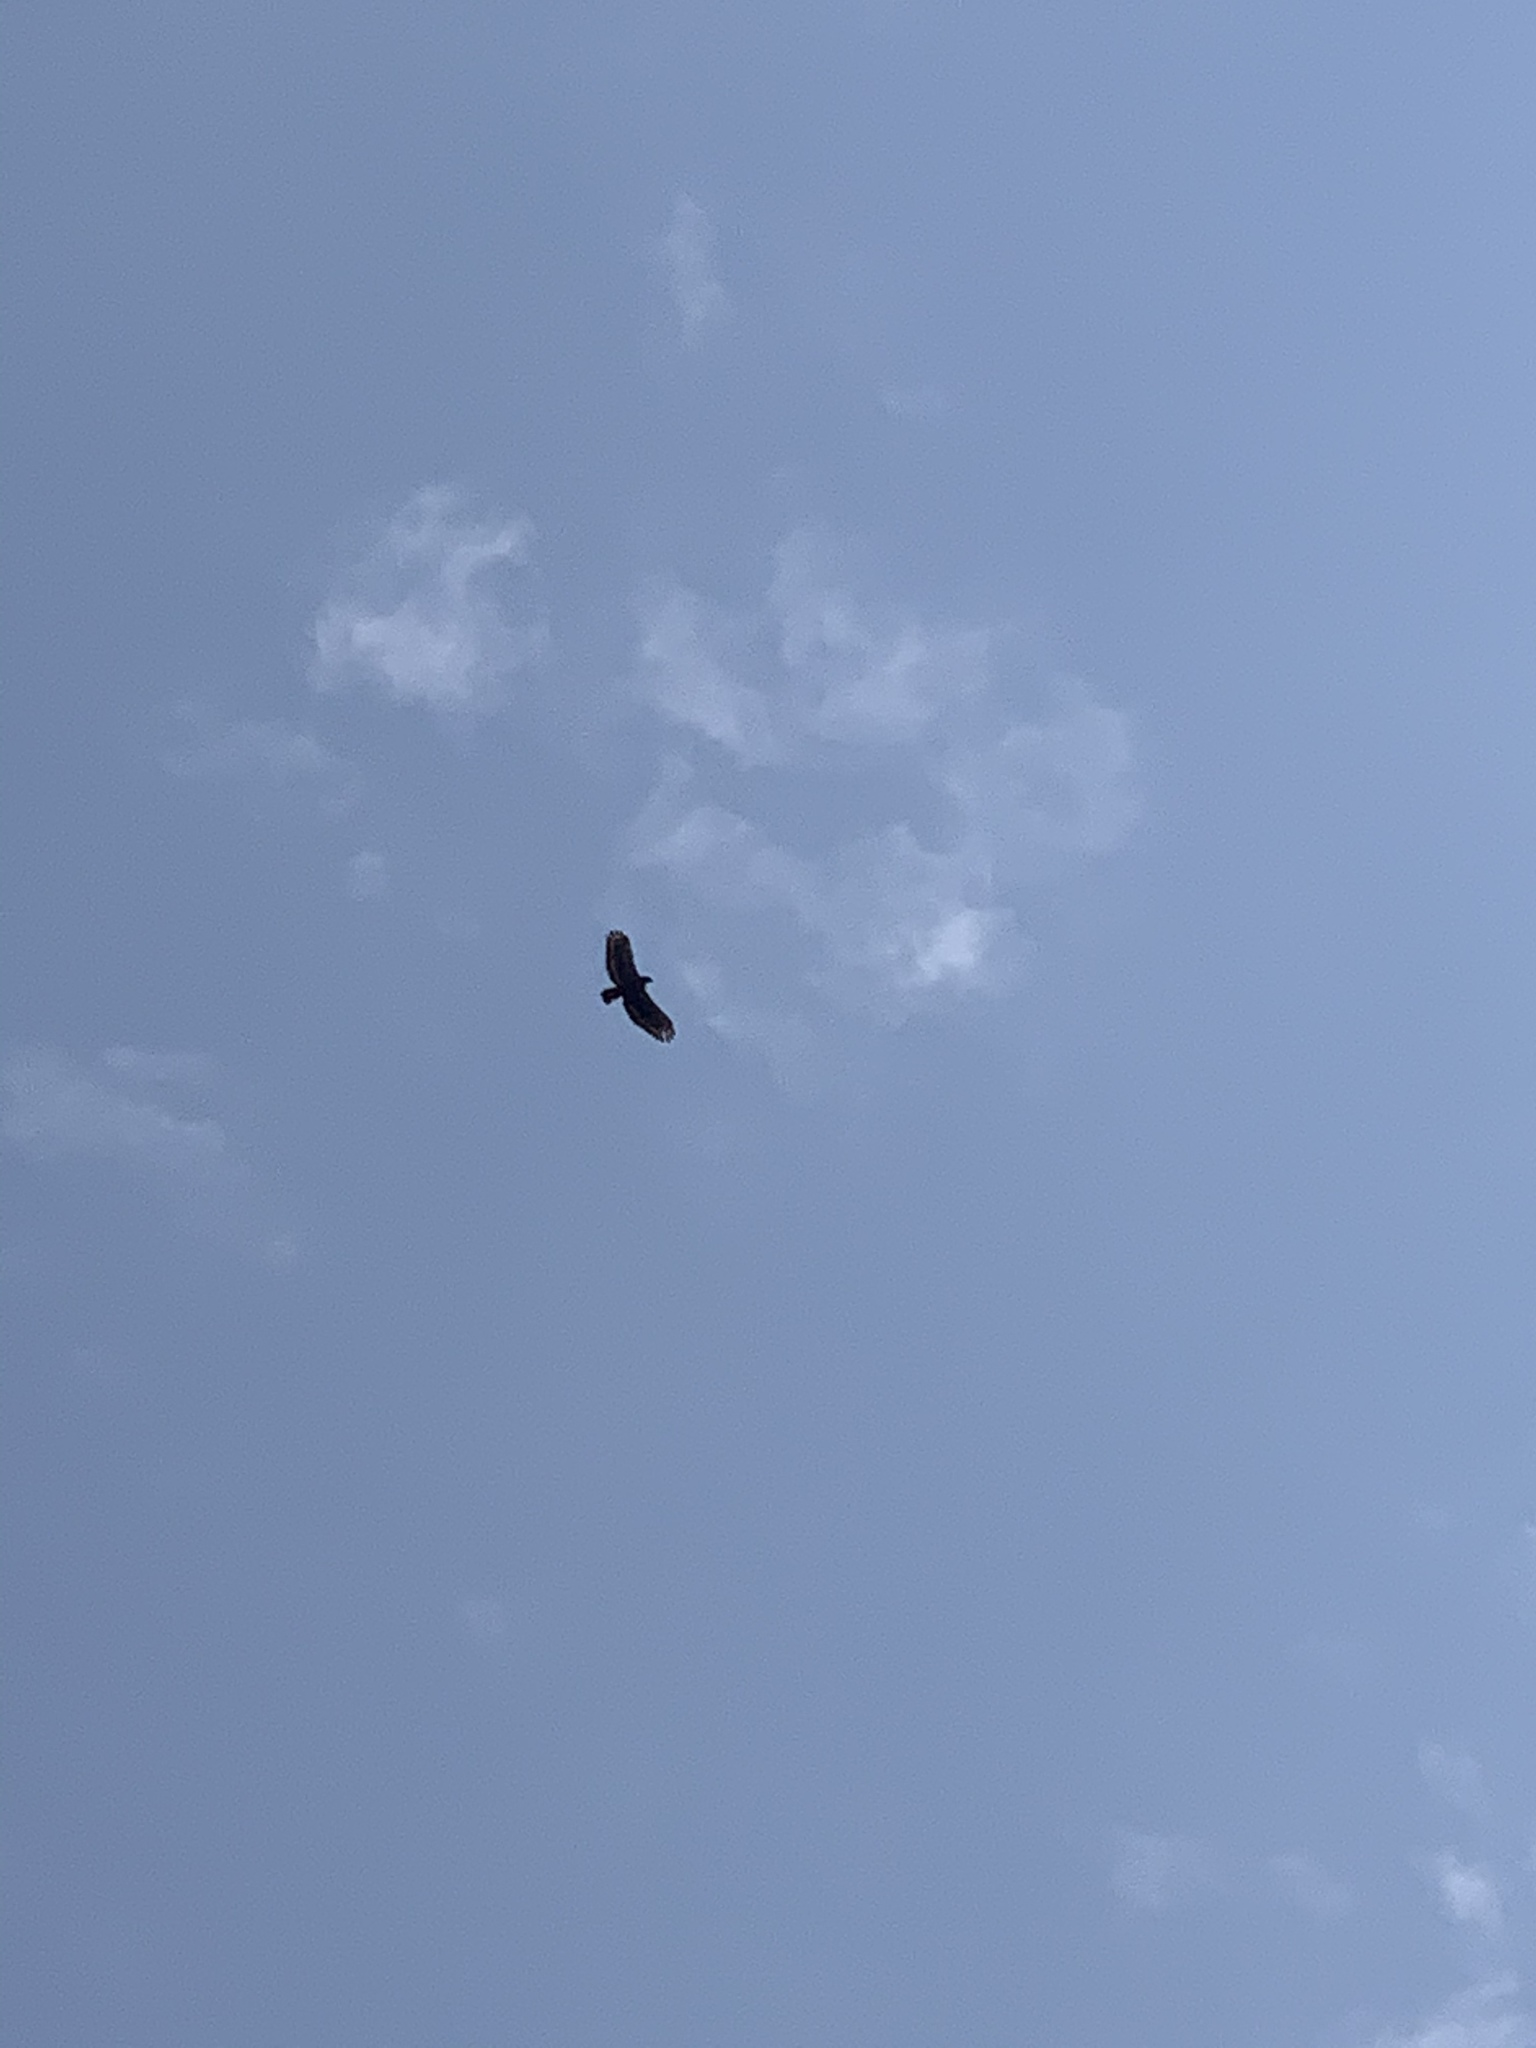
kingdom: Animalia
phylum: Chordata
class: Aves
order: Accipitriformes
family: Accipitridae
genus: Spilornis
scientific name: Spilornis cheela
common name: Crested serpent eagle
